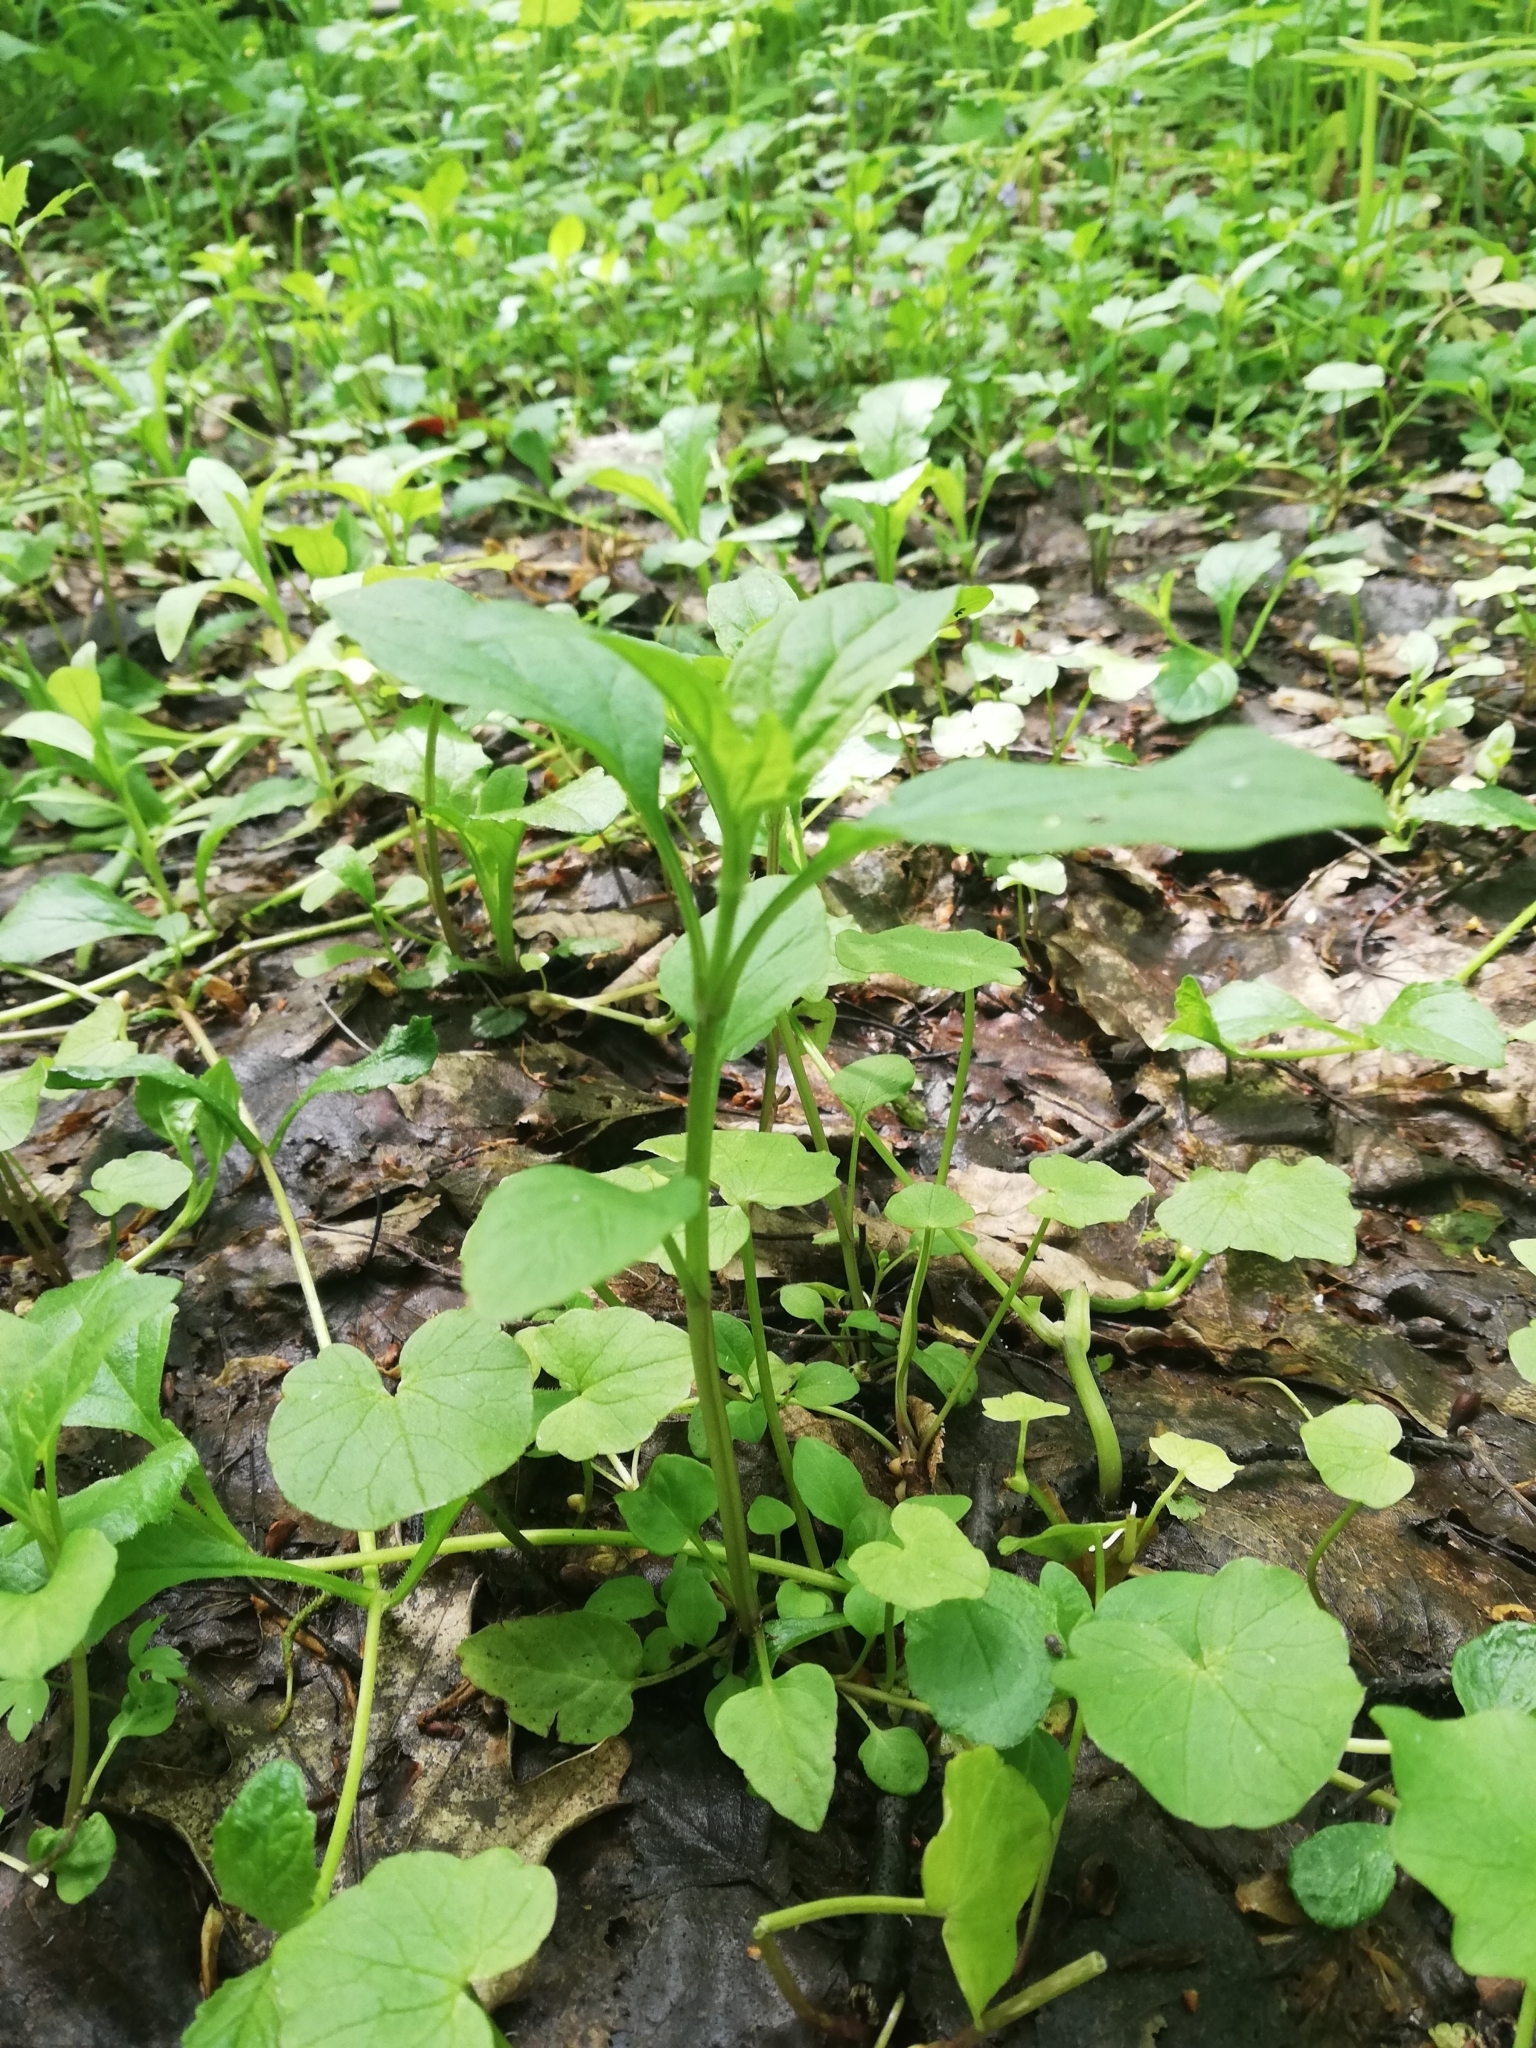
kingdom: Plantae
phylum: Tracheophyta
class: Magnoliopsida
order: Lamiales
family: Lamiaceae
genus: Prunella
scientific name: Prunella vulgaris
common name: Heal-all
